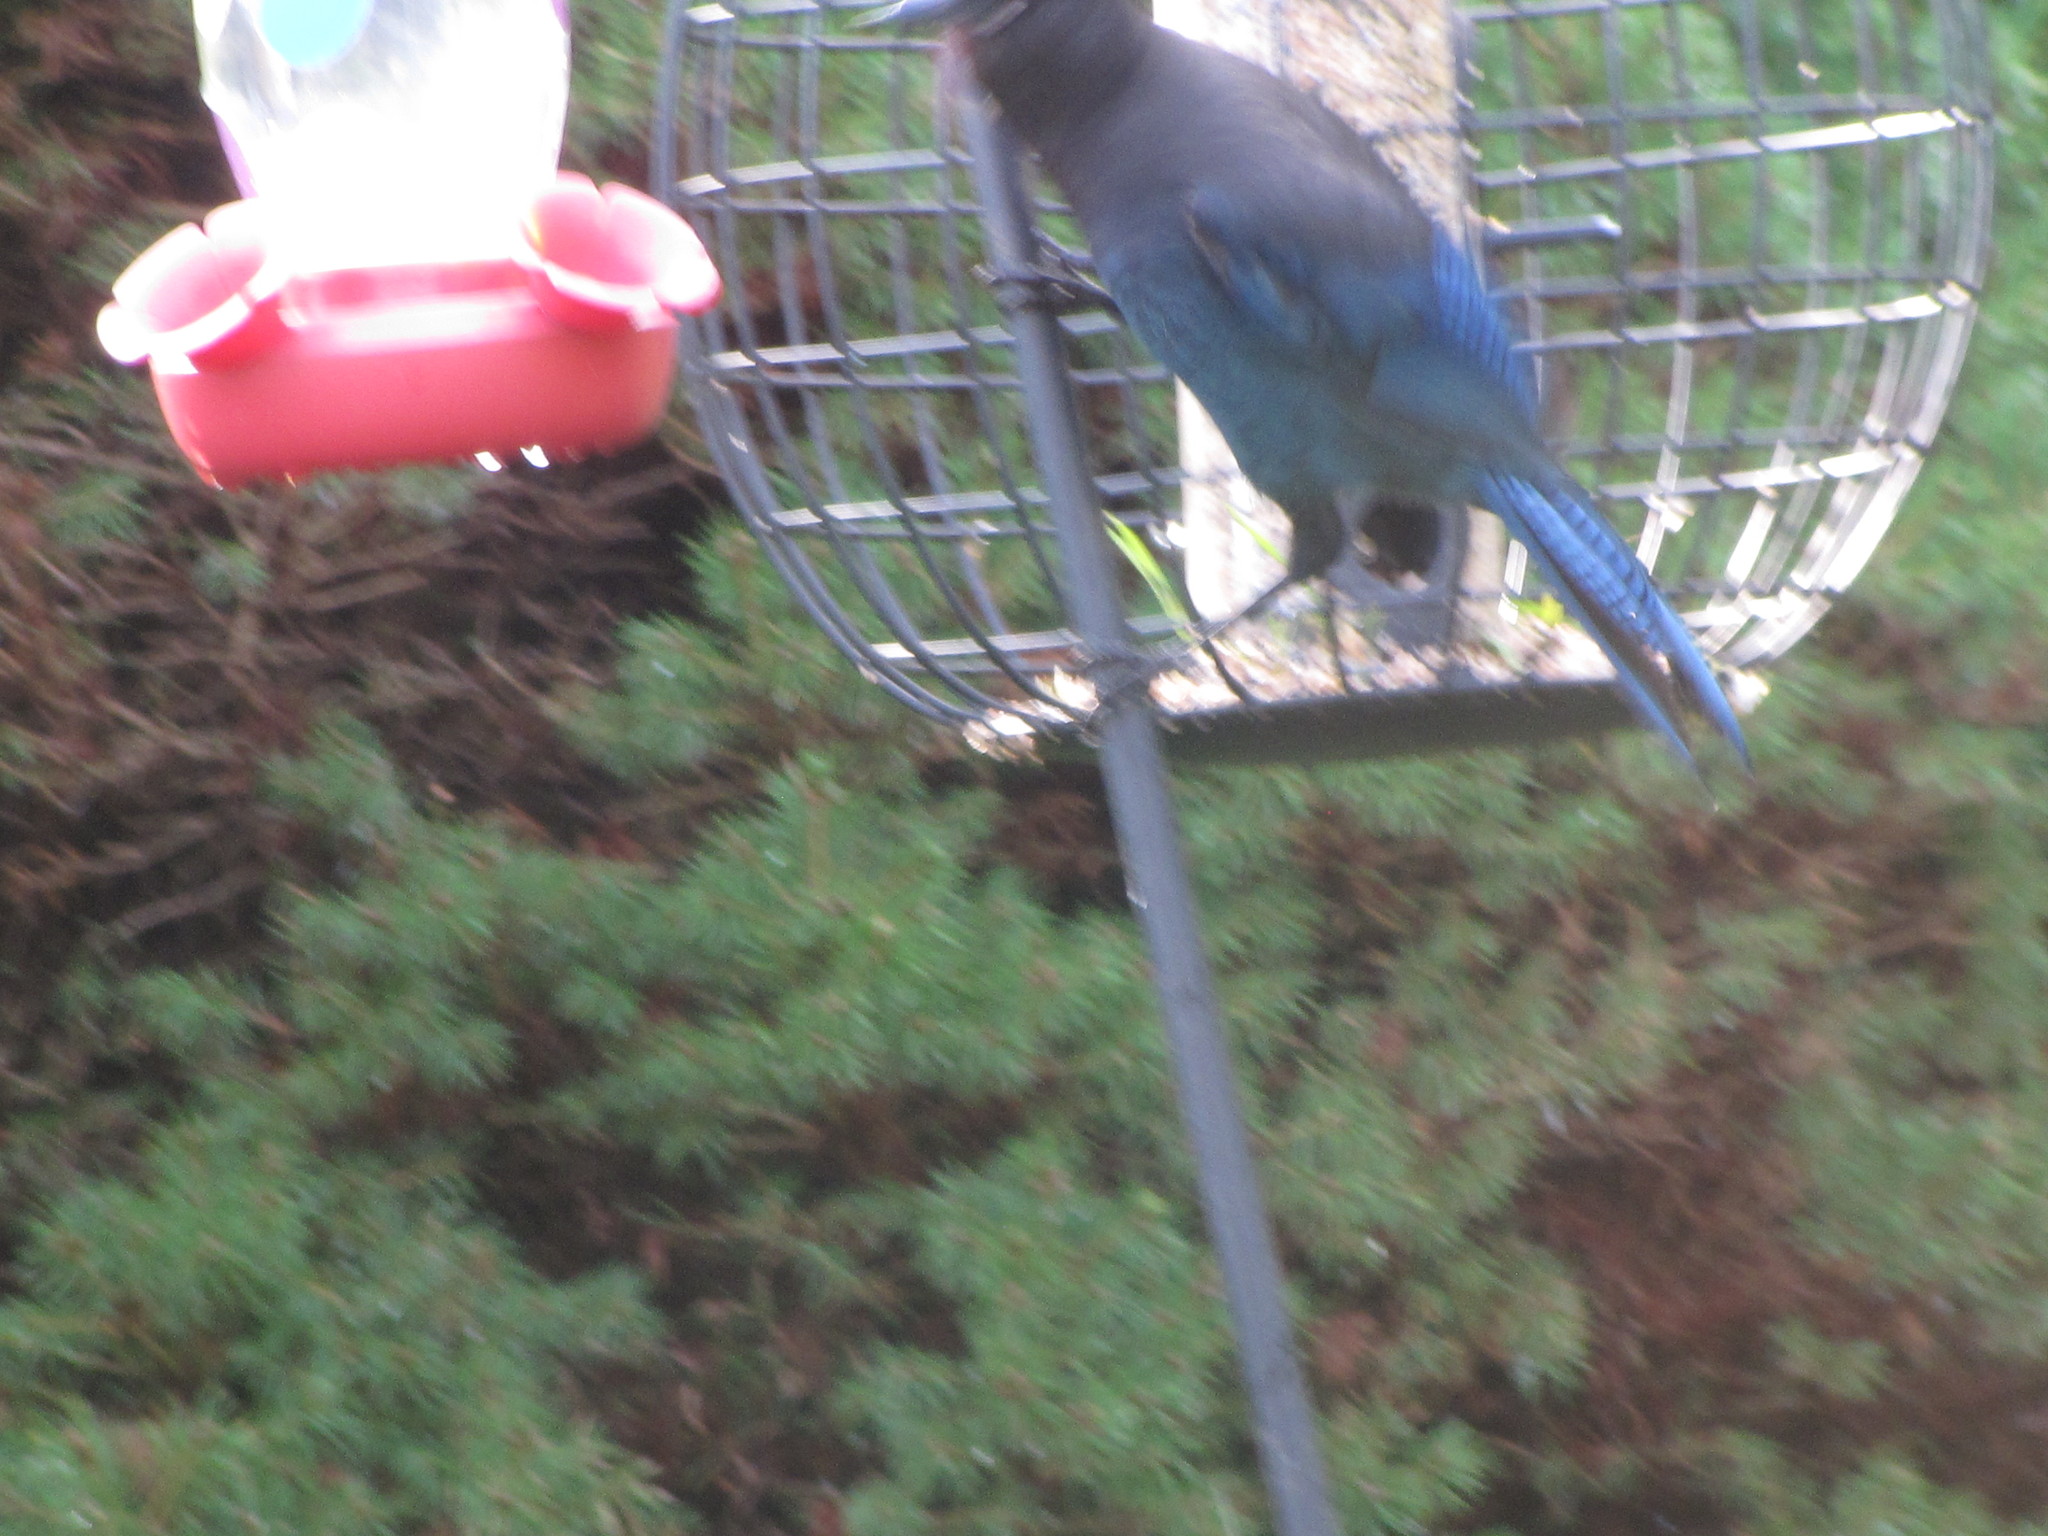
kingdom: Animalia
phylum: Chordata
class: Aves
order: Passeriformes
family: Corvidae
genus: Cyanocitta
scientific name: Cyanocitta stelleri
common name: Steller's jay
